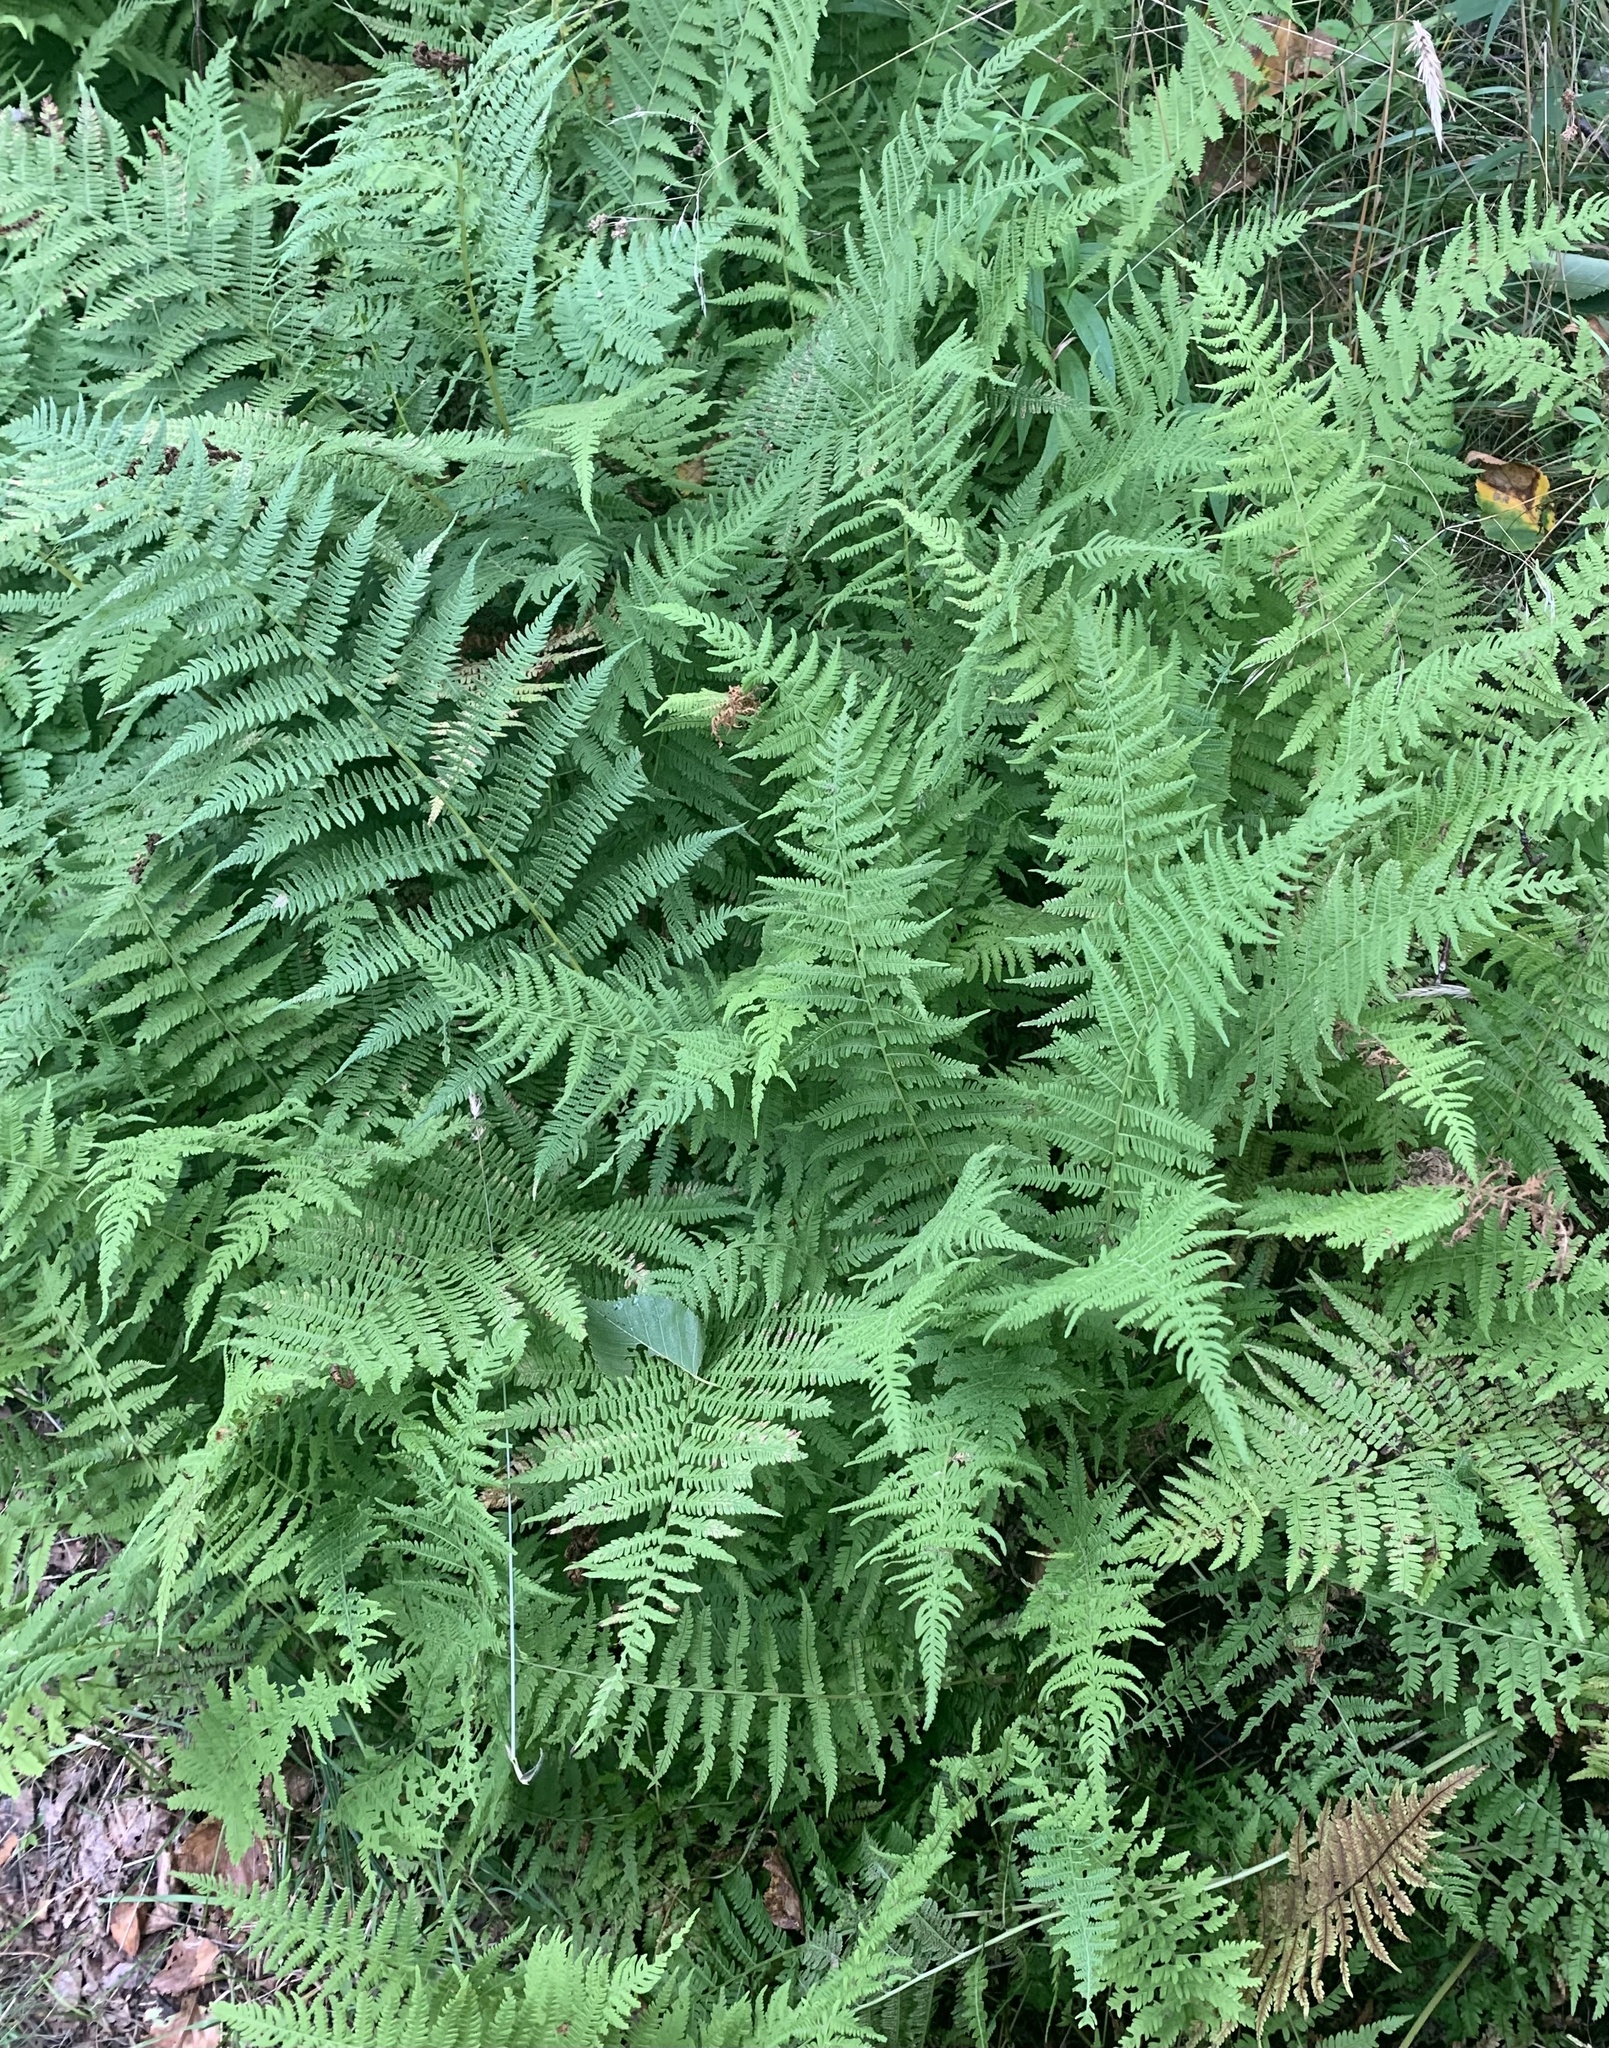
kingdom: Plantae
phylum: Tracheophyta
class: Polypodiopsida
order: Polypodiales
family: Athyriaceae
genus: Athyrium
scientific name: Athyrium angustum
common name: Northern lady fern
